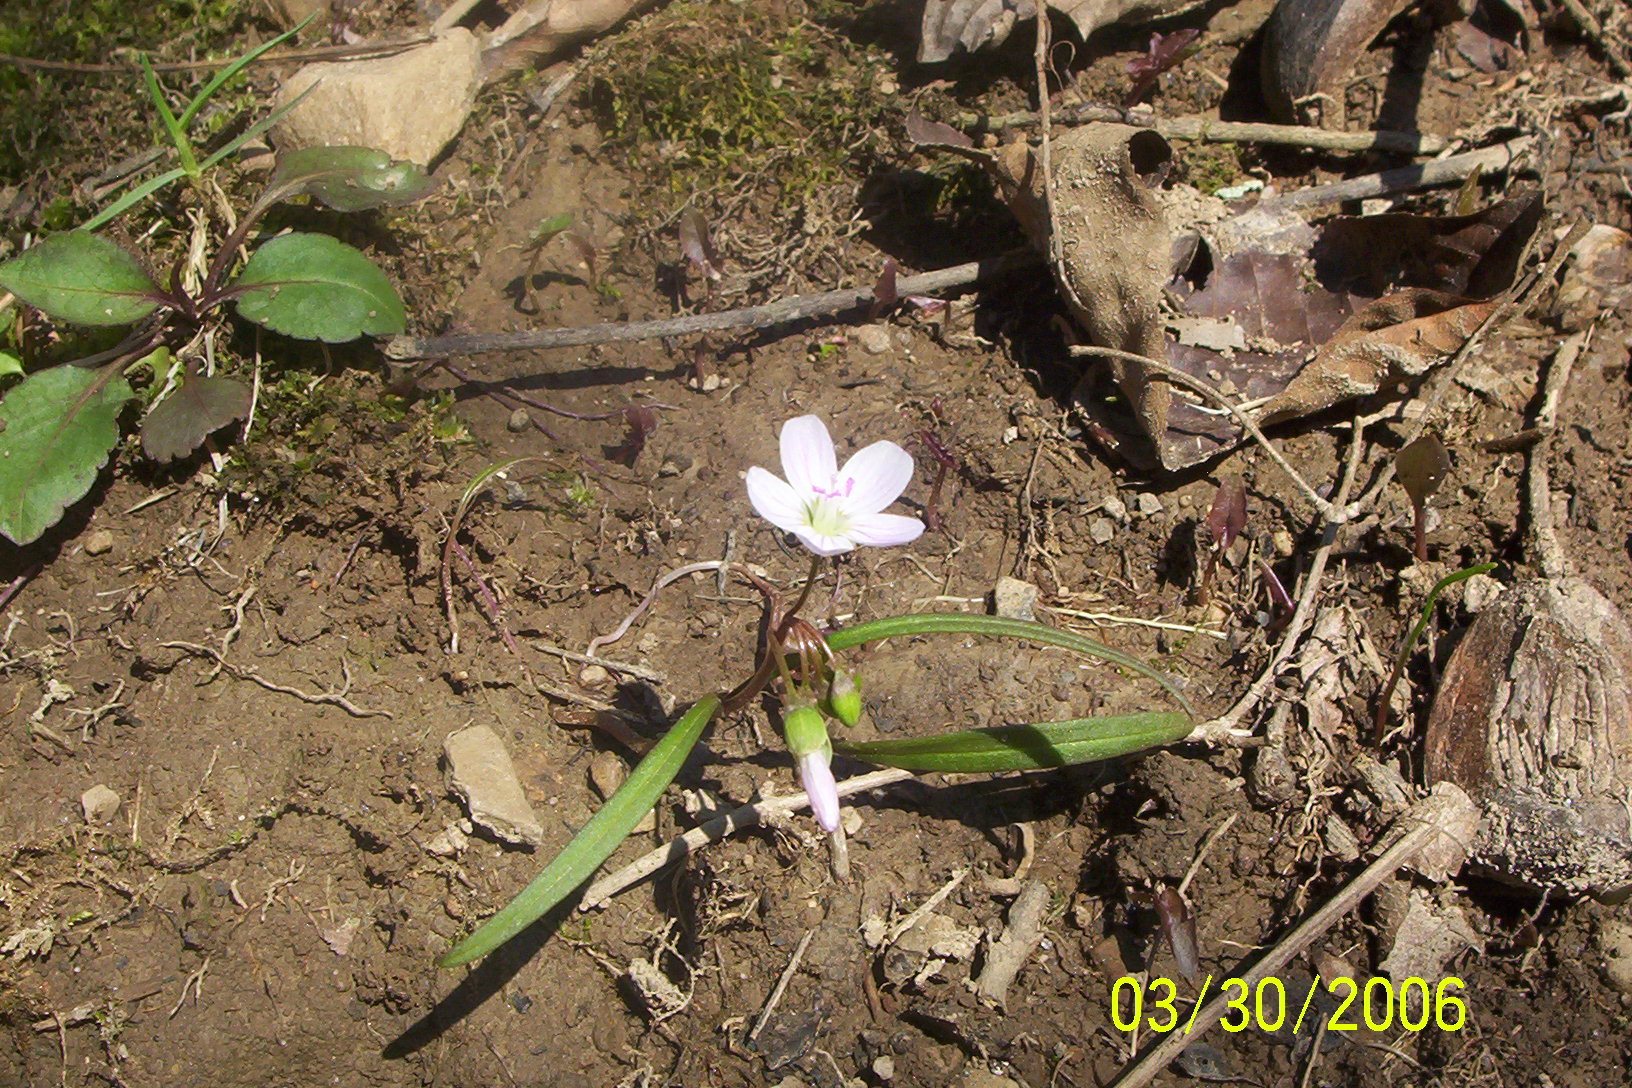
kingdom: Plantae
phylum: Tracheophyta
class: Magnoliopsida
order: Caryophyllales
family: Montiaceae
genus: Claytonia
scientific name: Claytonia virginica
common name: Virginia springbeauty
